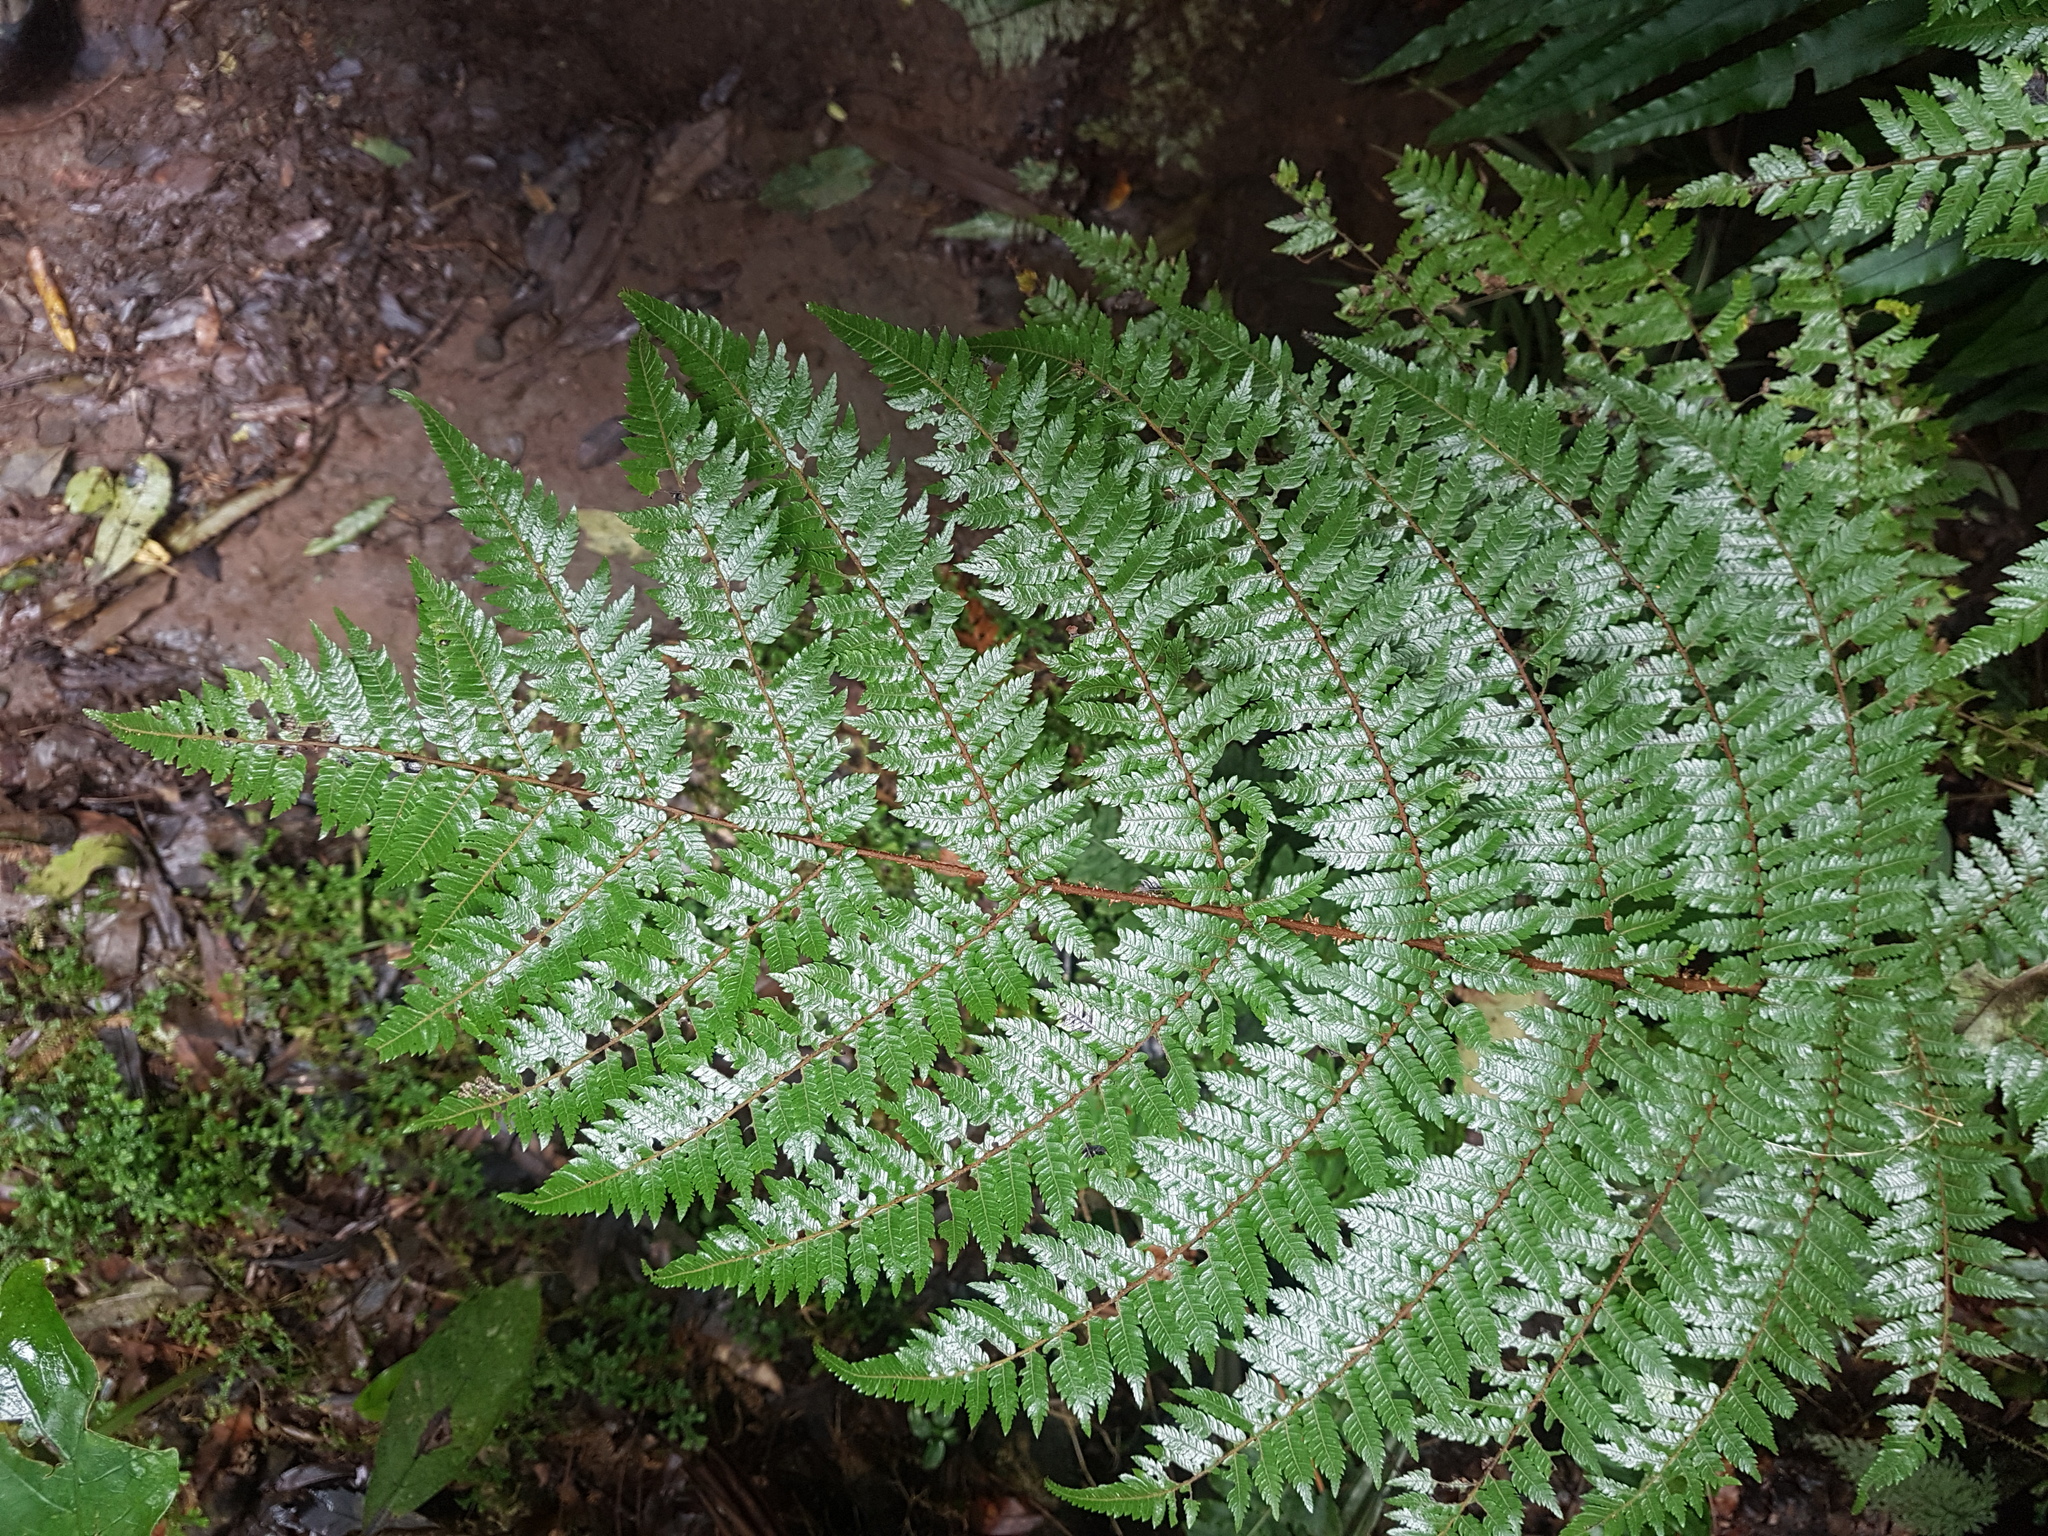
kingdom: Plantae
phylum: Tracheophyta
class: Polypodiopsida
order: Cyatheales
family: Cyatheaceae
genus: Alsophila
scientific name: Alsophila smithii
